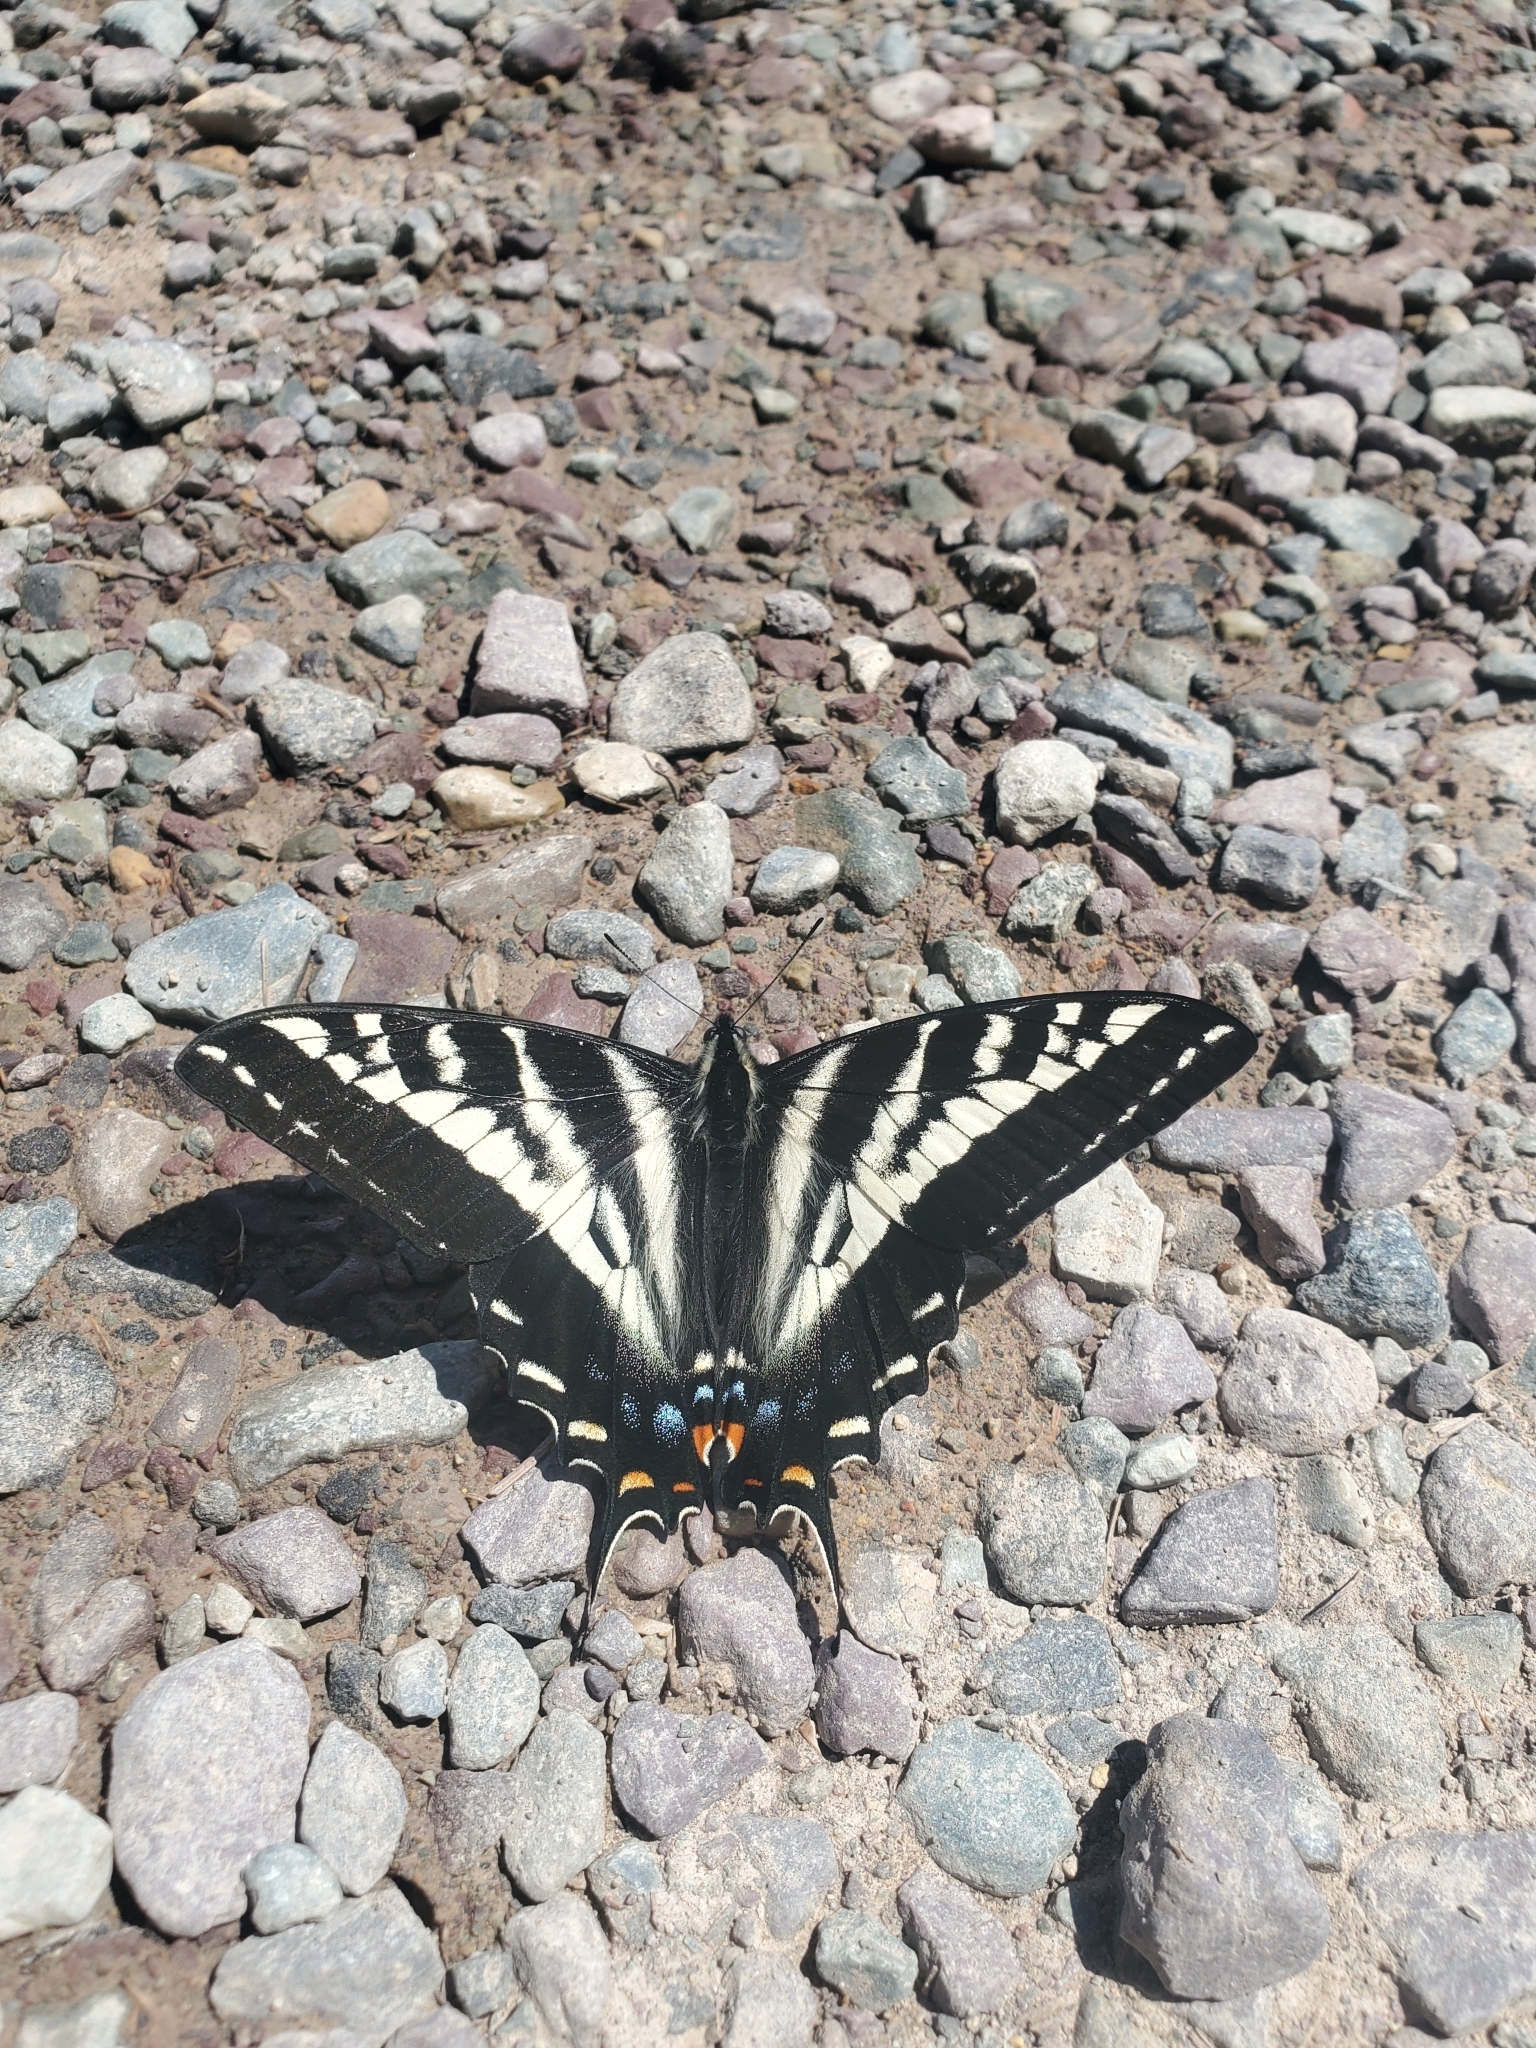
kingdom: Animalia
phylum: Arthropoda
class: Insecta
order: Lepidoptera
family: Papilionidae
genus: Papilio
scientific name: Papilio eurymedon
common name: Pale tiger swallowtail
